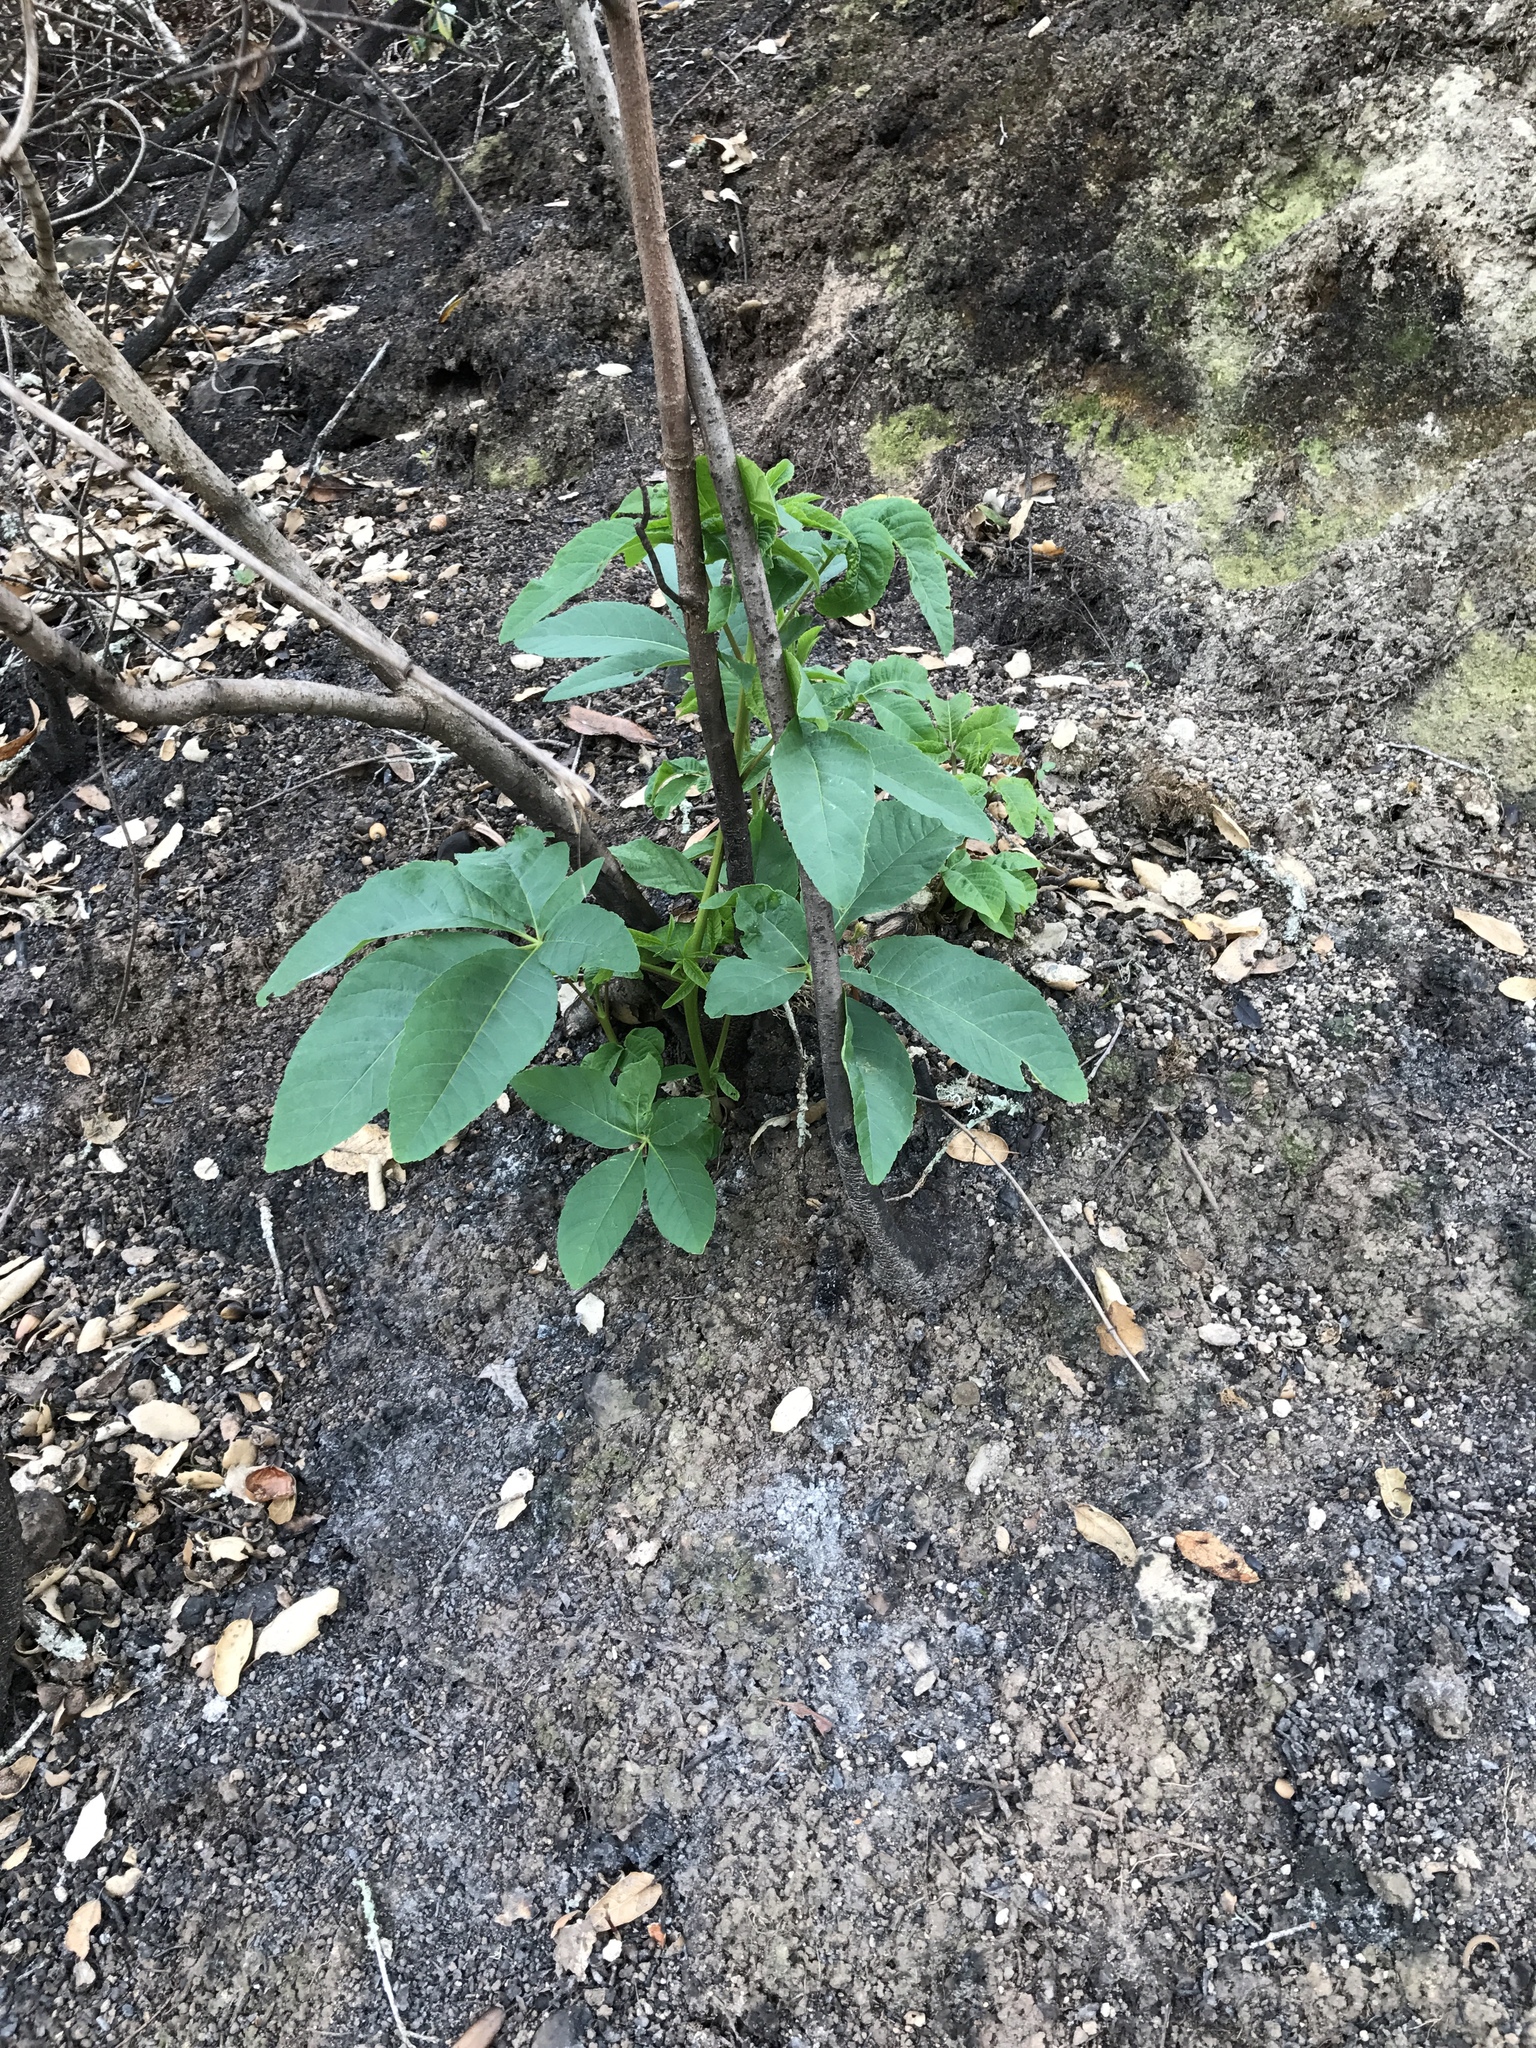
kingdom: Plantae
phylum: Tracheophyta
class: Magnoliopsida
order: Sapindales
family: Sapindaceae
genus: Aesculus
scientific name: Aesculus californica
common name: California buckeye
